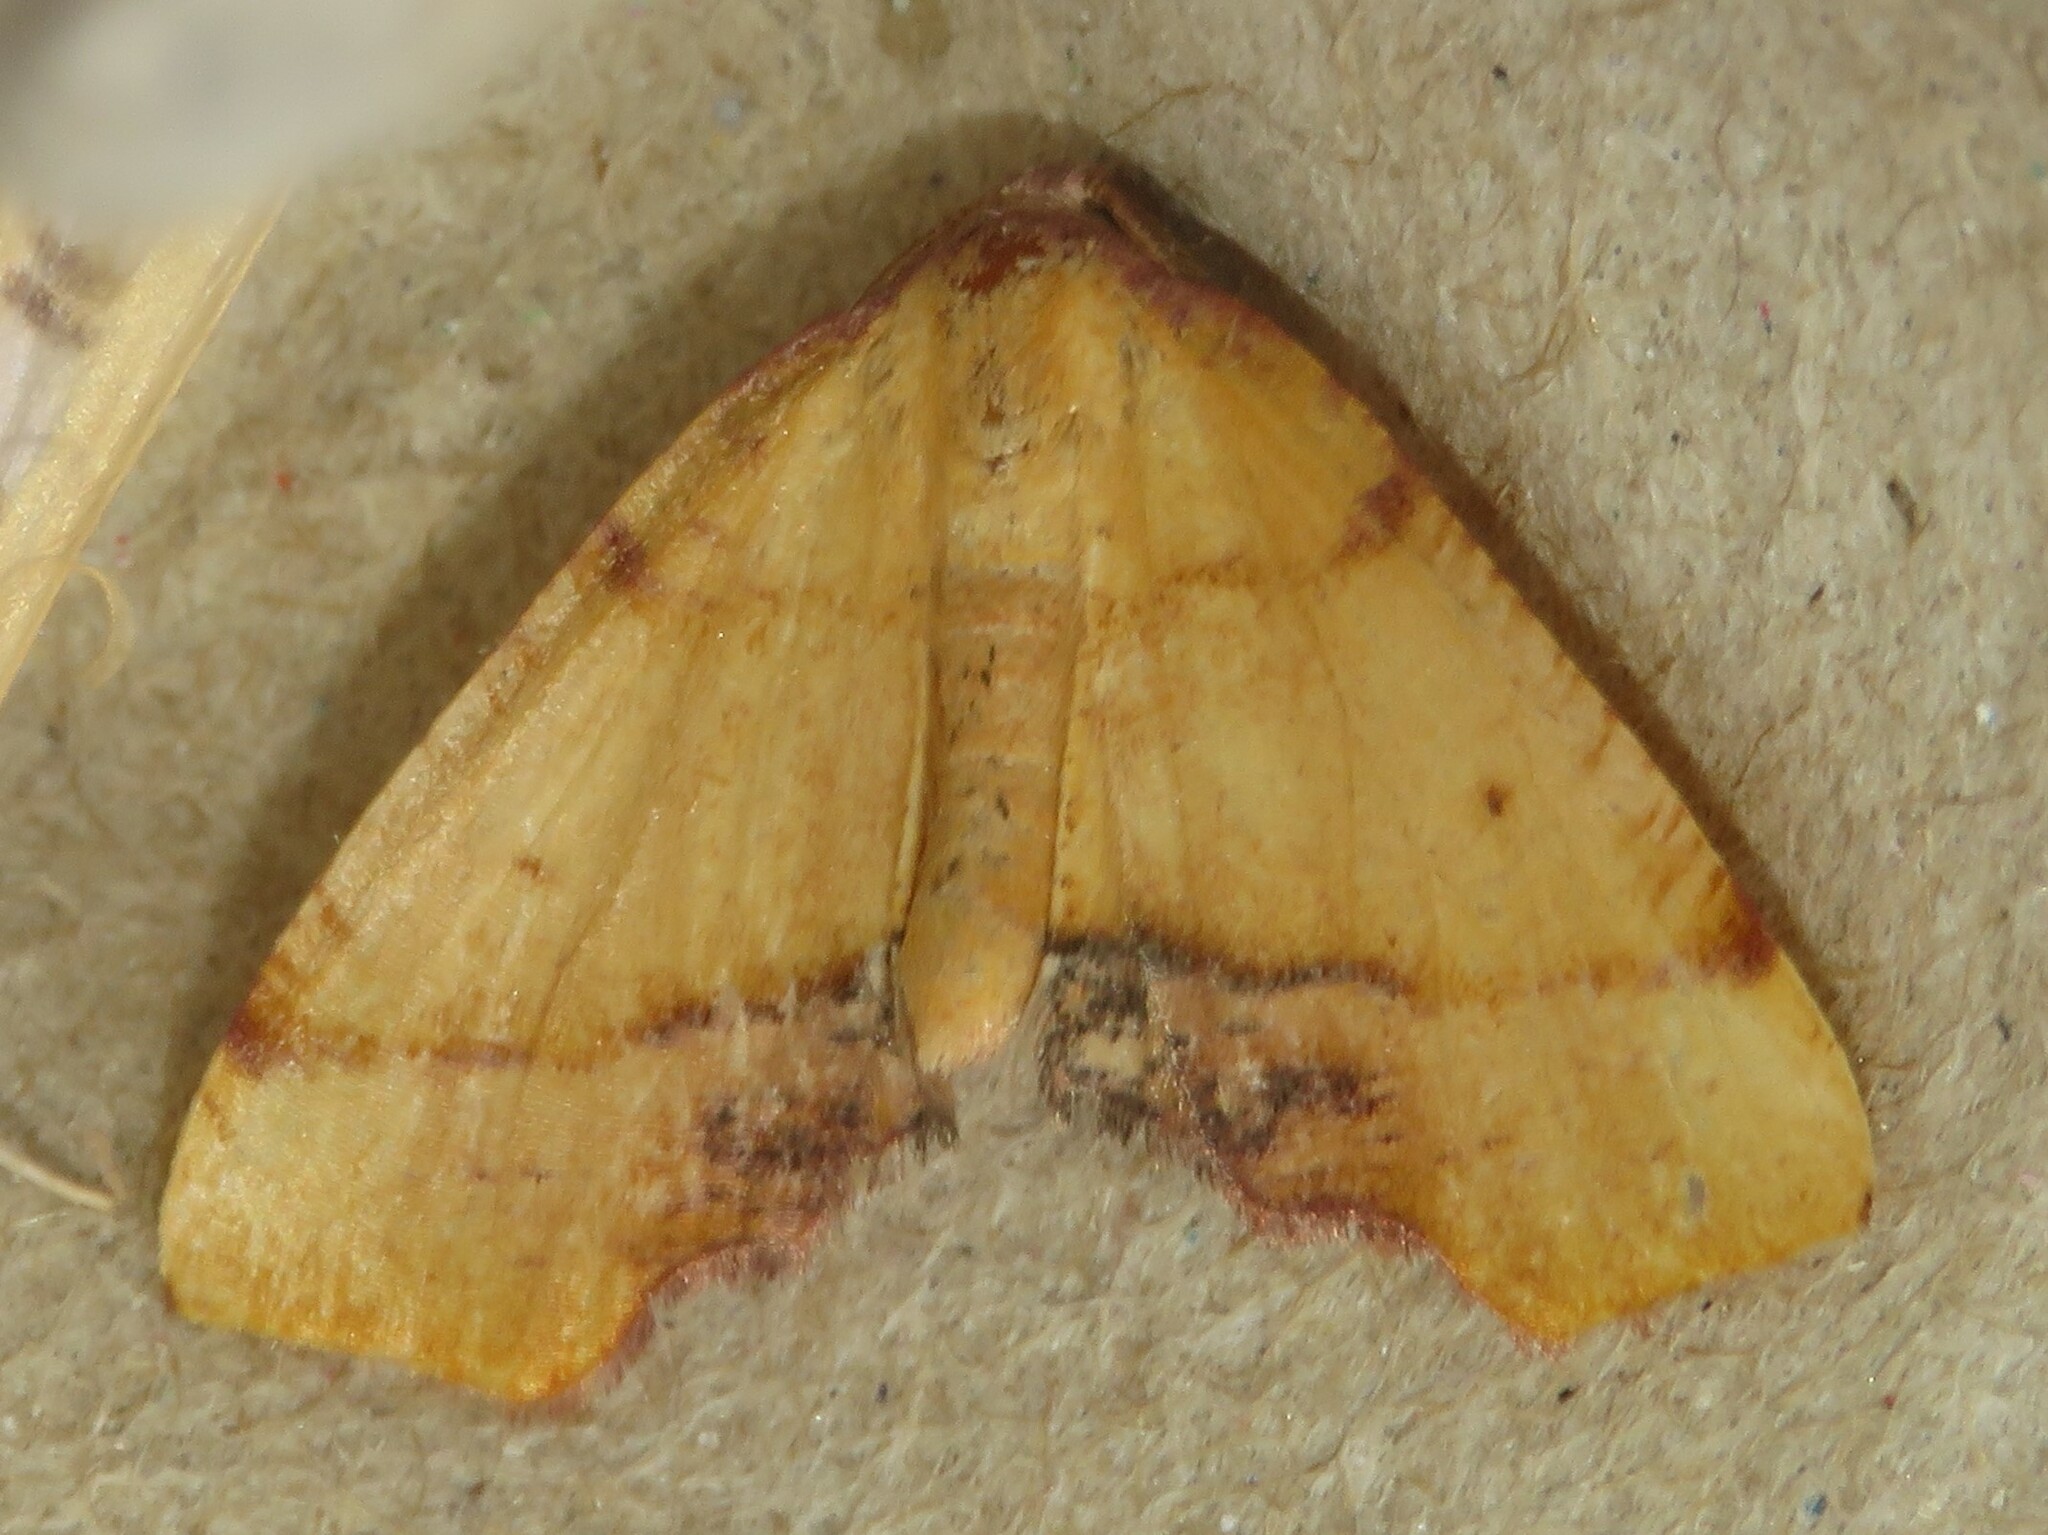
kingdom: Animalia
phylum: Arthropoda
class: Insecta
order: Lepidoptera
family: Geometridae
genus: Plagodis
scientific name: Plagodis phlogosaria
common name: Straight-lined plagodis
